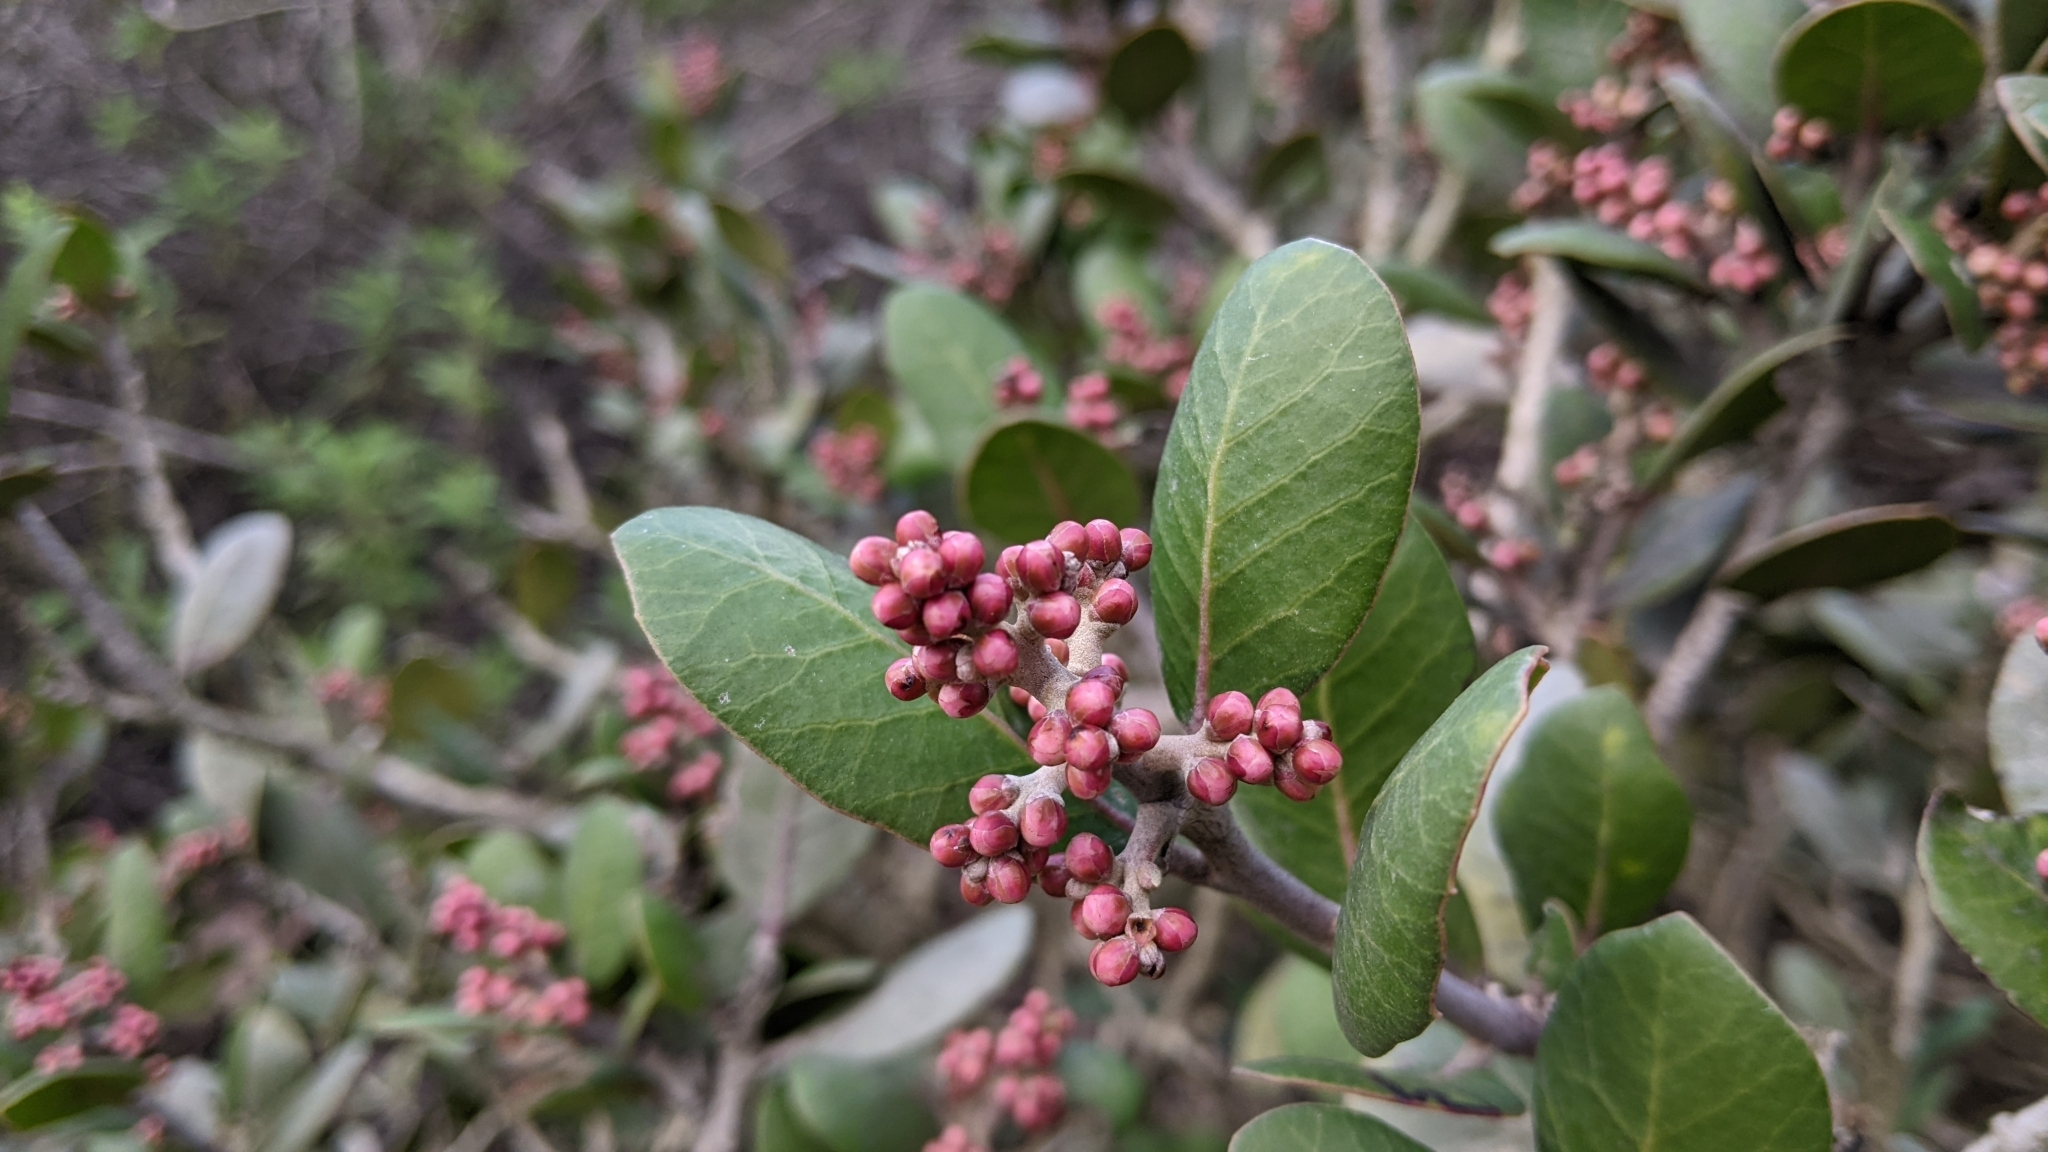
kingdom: Plantae
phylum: Tracheophyta
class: Magnoliopsida
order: Sapindales
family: Anacardiaceae
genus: Rhus
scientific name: Rhus integrifolia
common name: Lemonade sumac
